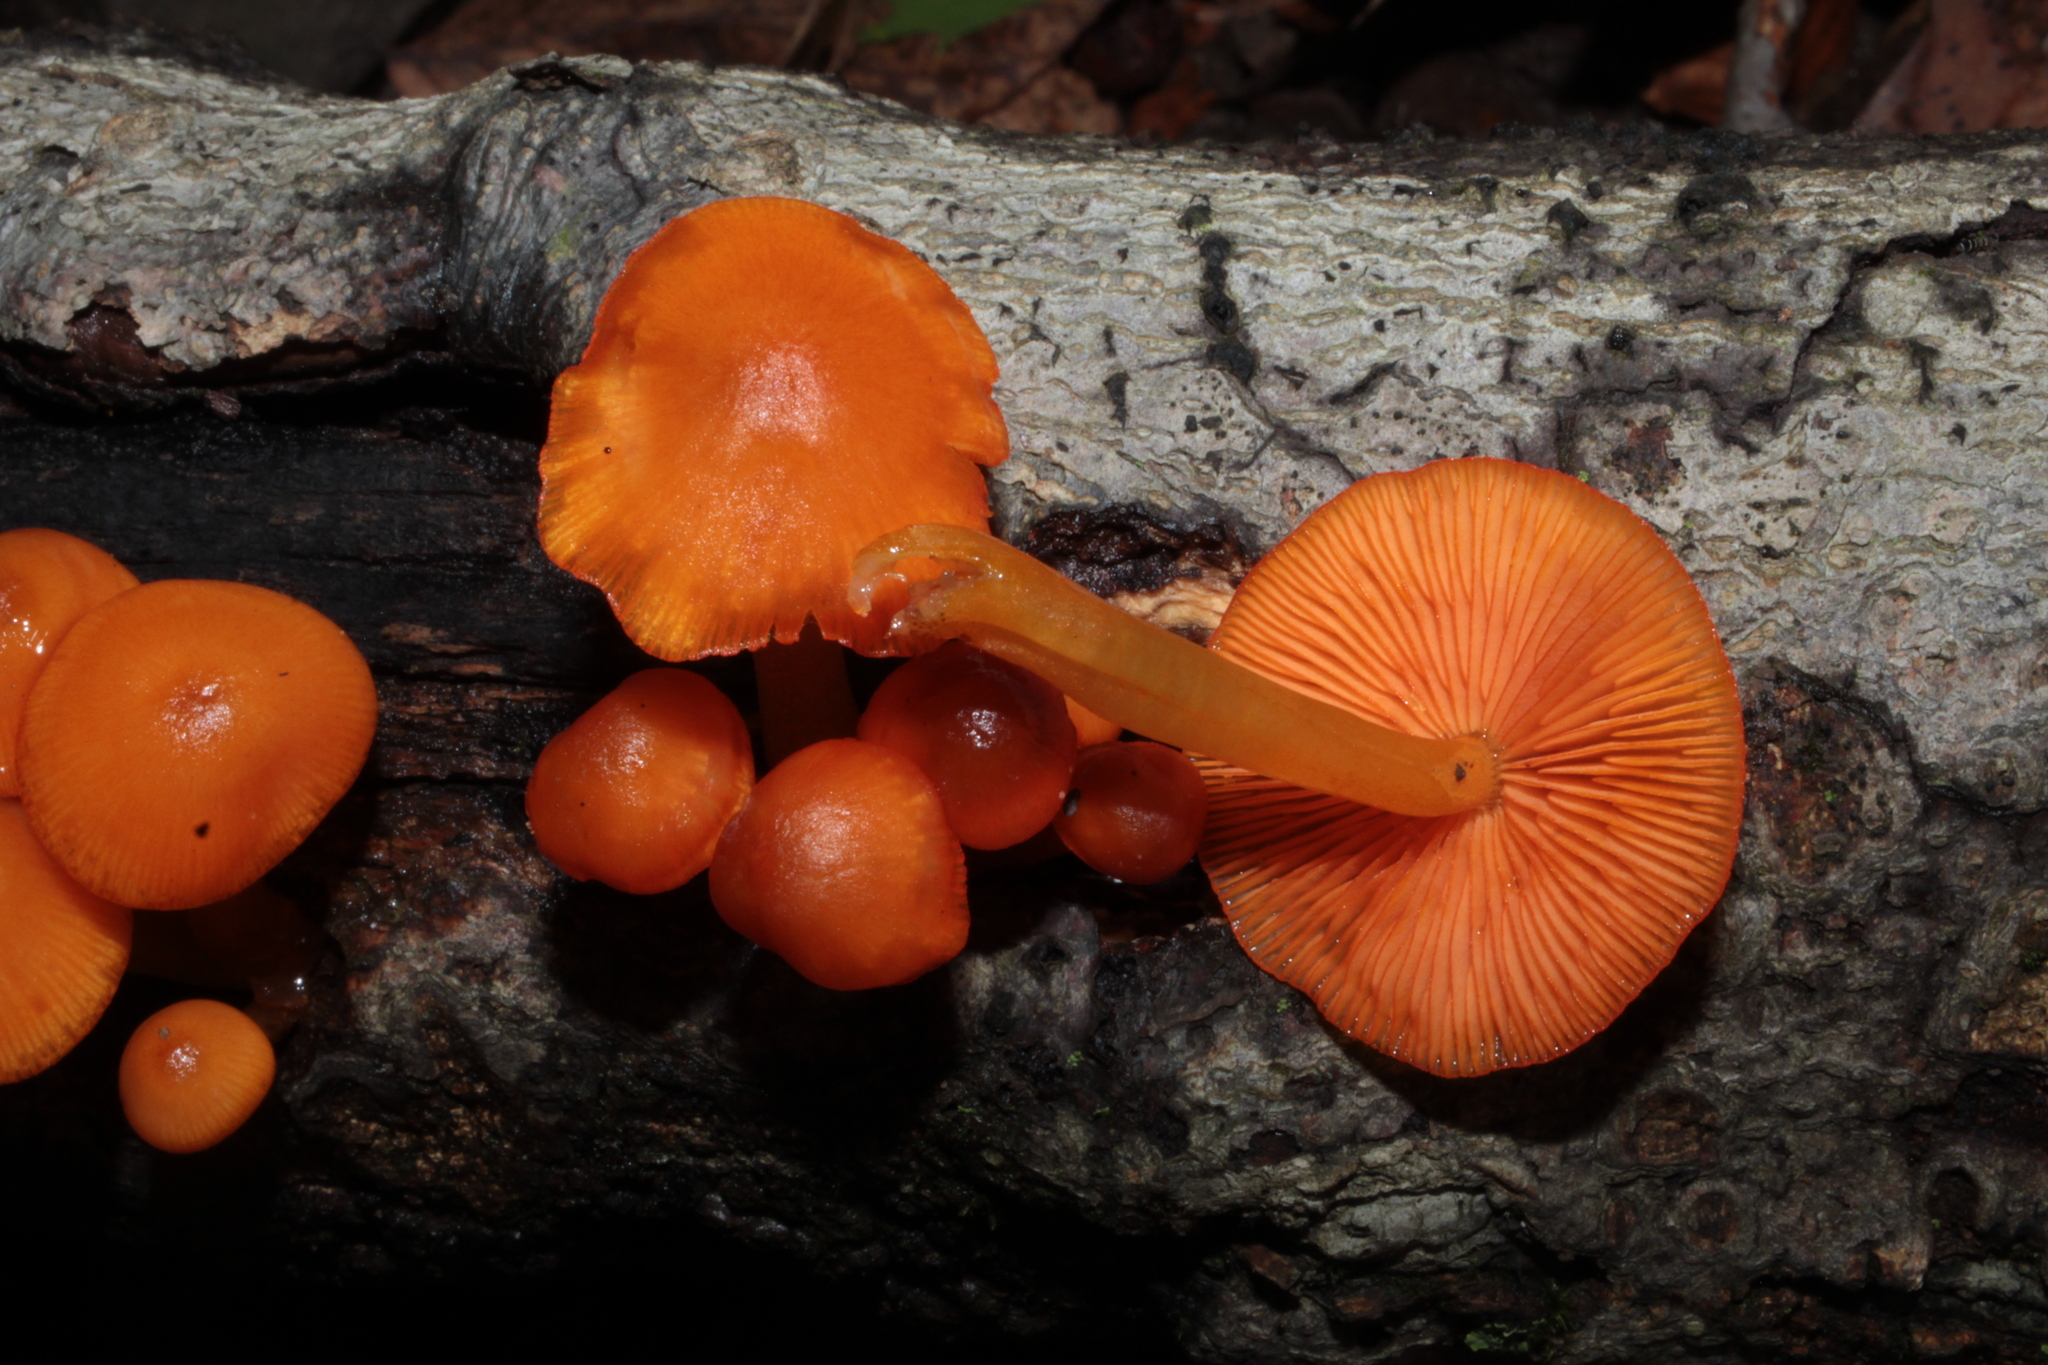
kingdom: Fungi
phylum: Basidiomycota
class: Agaricomycetes
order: Agaricales
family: Mycenaceae
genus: Mycena
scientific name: Mycena leaiana
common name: Orange mycena
